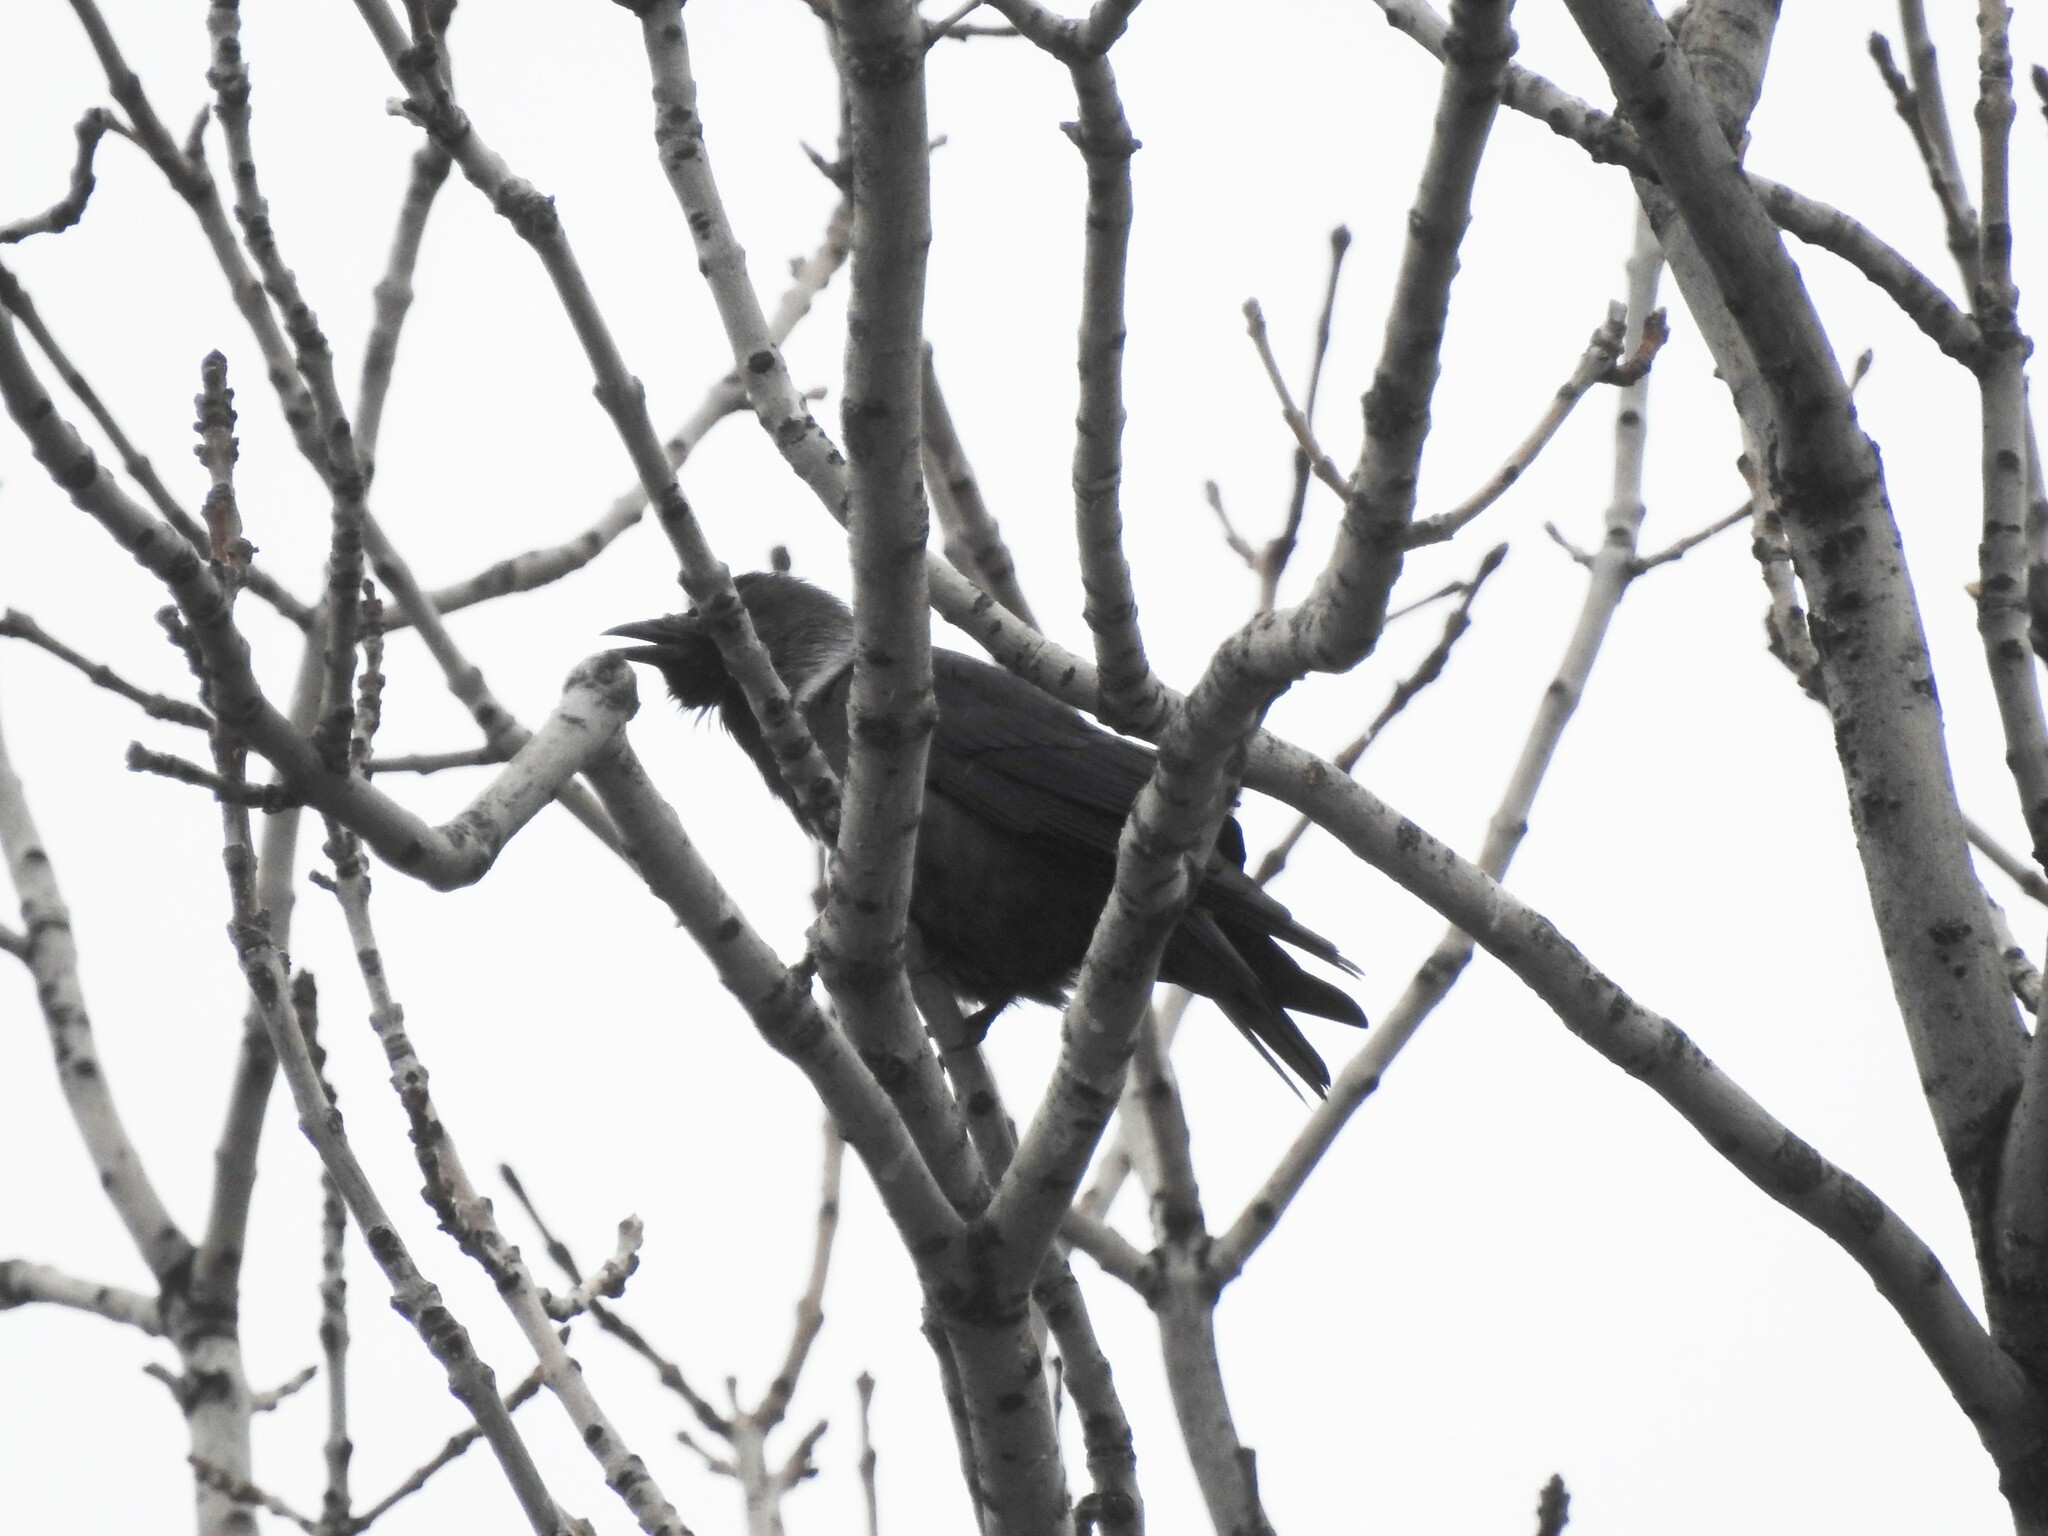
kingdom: Animalia
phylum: Chordata
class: Aves
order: Passeriformes
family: Corvidae
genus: Coloeus
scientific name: Coloeus monedula
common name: Western jackdaw
